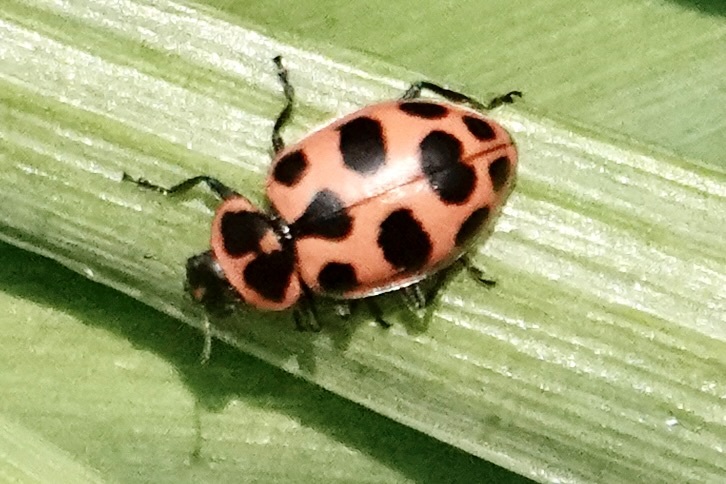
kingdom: Animalia
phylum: Arthropoda
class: Insecta
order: Coleoptera
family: Coccinellidae
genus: Coleomegilla
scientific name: Coleomegilla maculata
